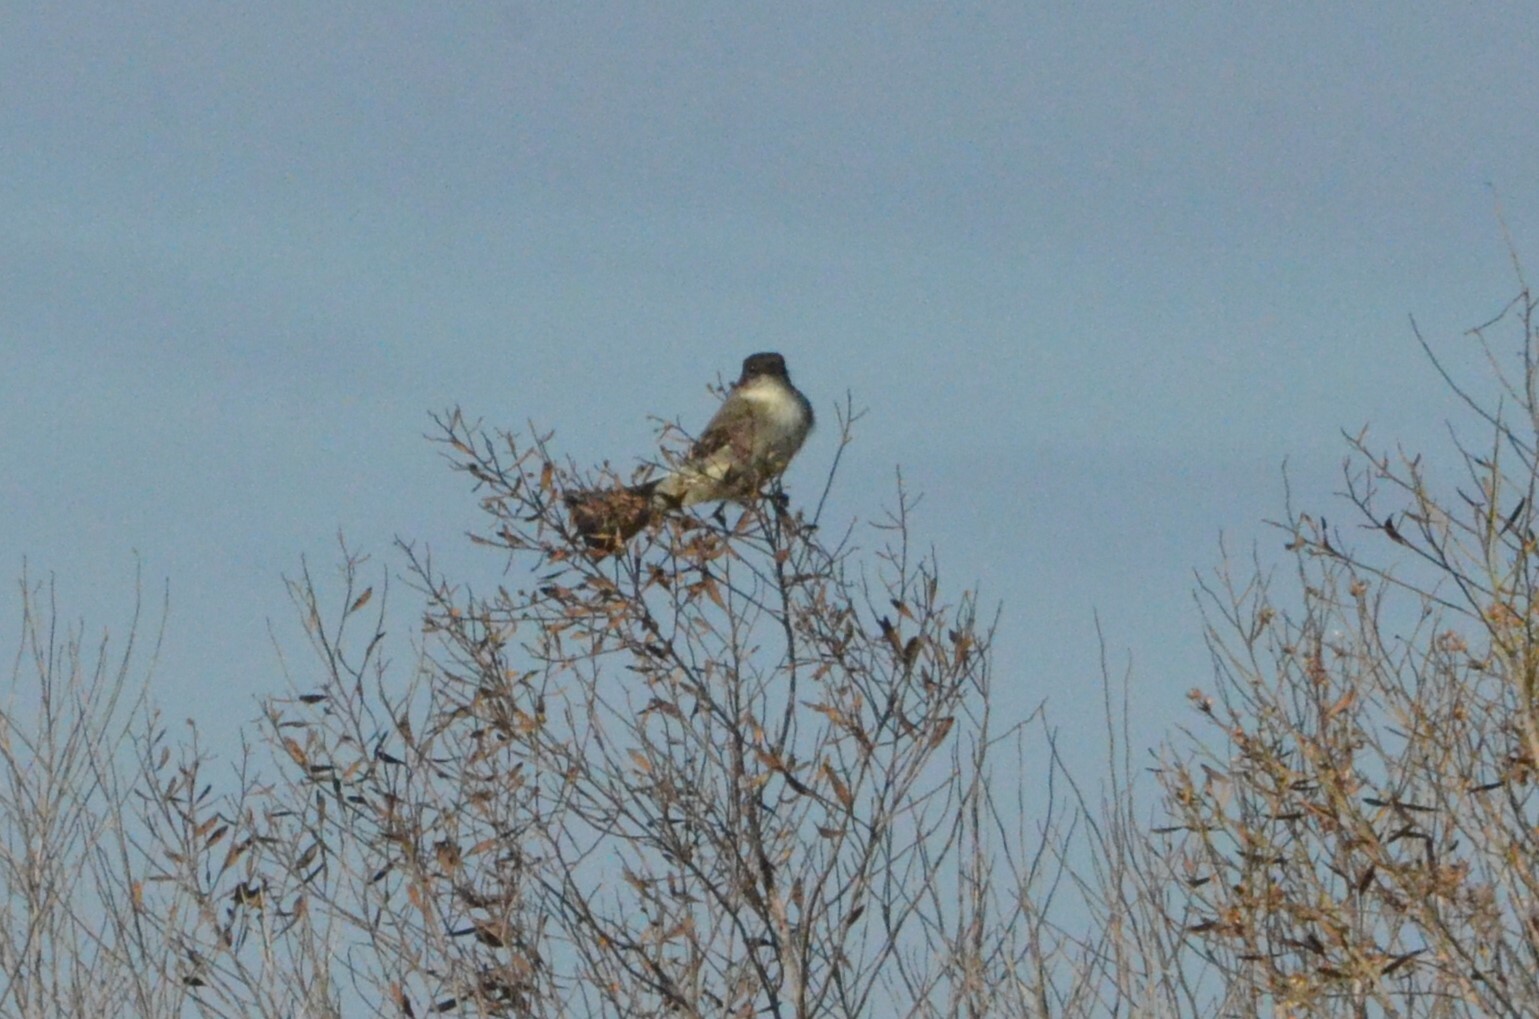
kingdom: Animalia
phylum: Chordata
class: Aves
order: Passeriformes
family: Tyrannidae
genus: Sayornis
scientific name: Sayornis phoebe
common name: Eastern phoebe
